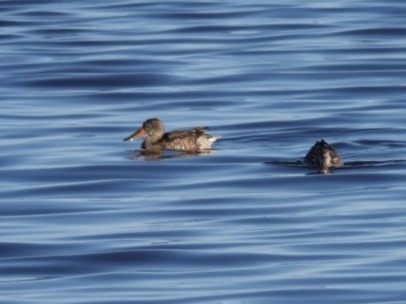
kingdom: Animalia
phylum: Chordata
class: Aves
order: Anseriformes
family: Anatidae
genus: Spatula
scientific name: Spatula clypeata
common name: Northern shoveler
